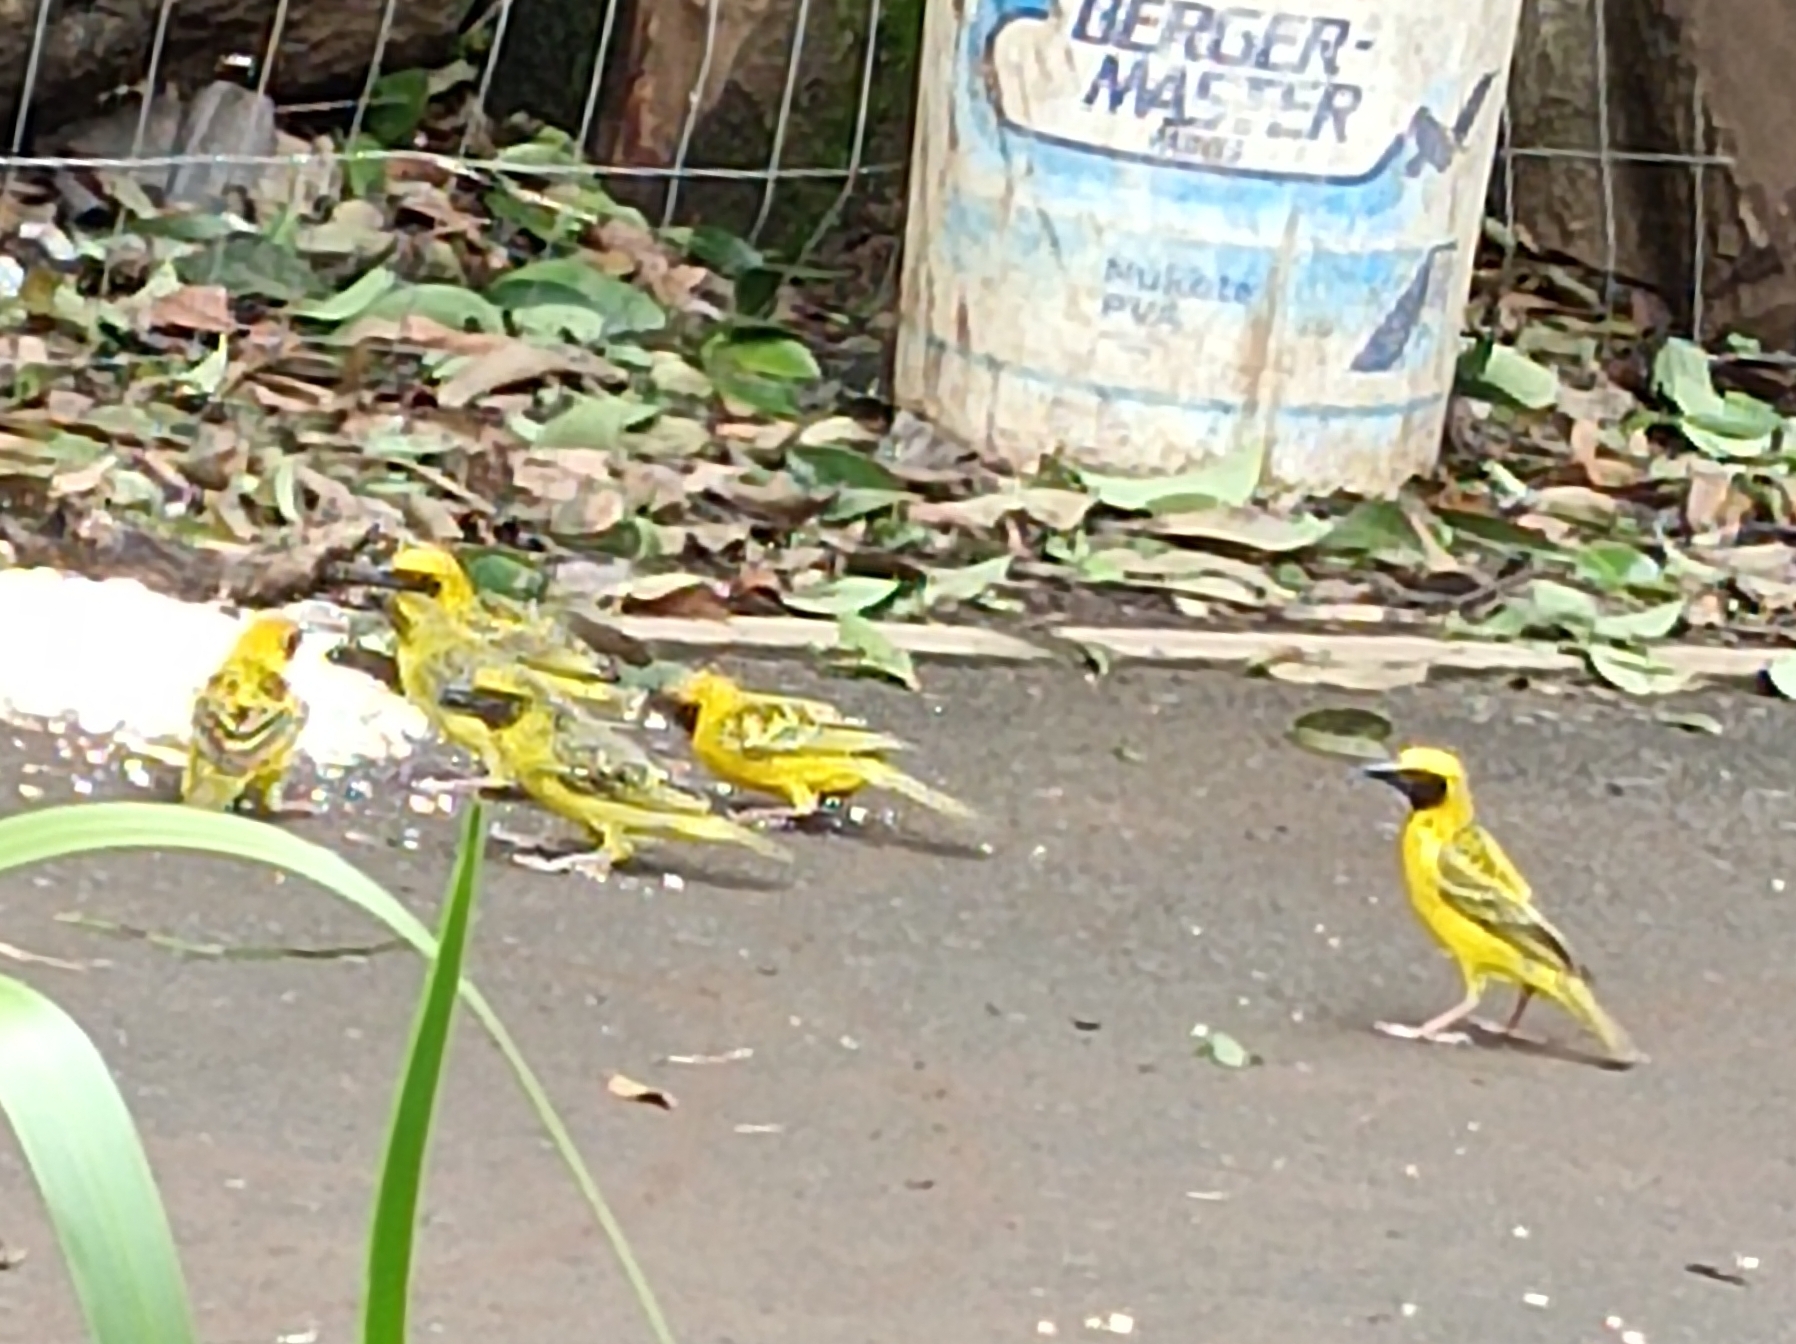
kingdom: Animalia
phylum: Chordata
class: Aves
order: Passeriformes
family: Ploceidae
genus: Ploceus
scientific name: Ploceus cucullatus
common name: Village weaver
